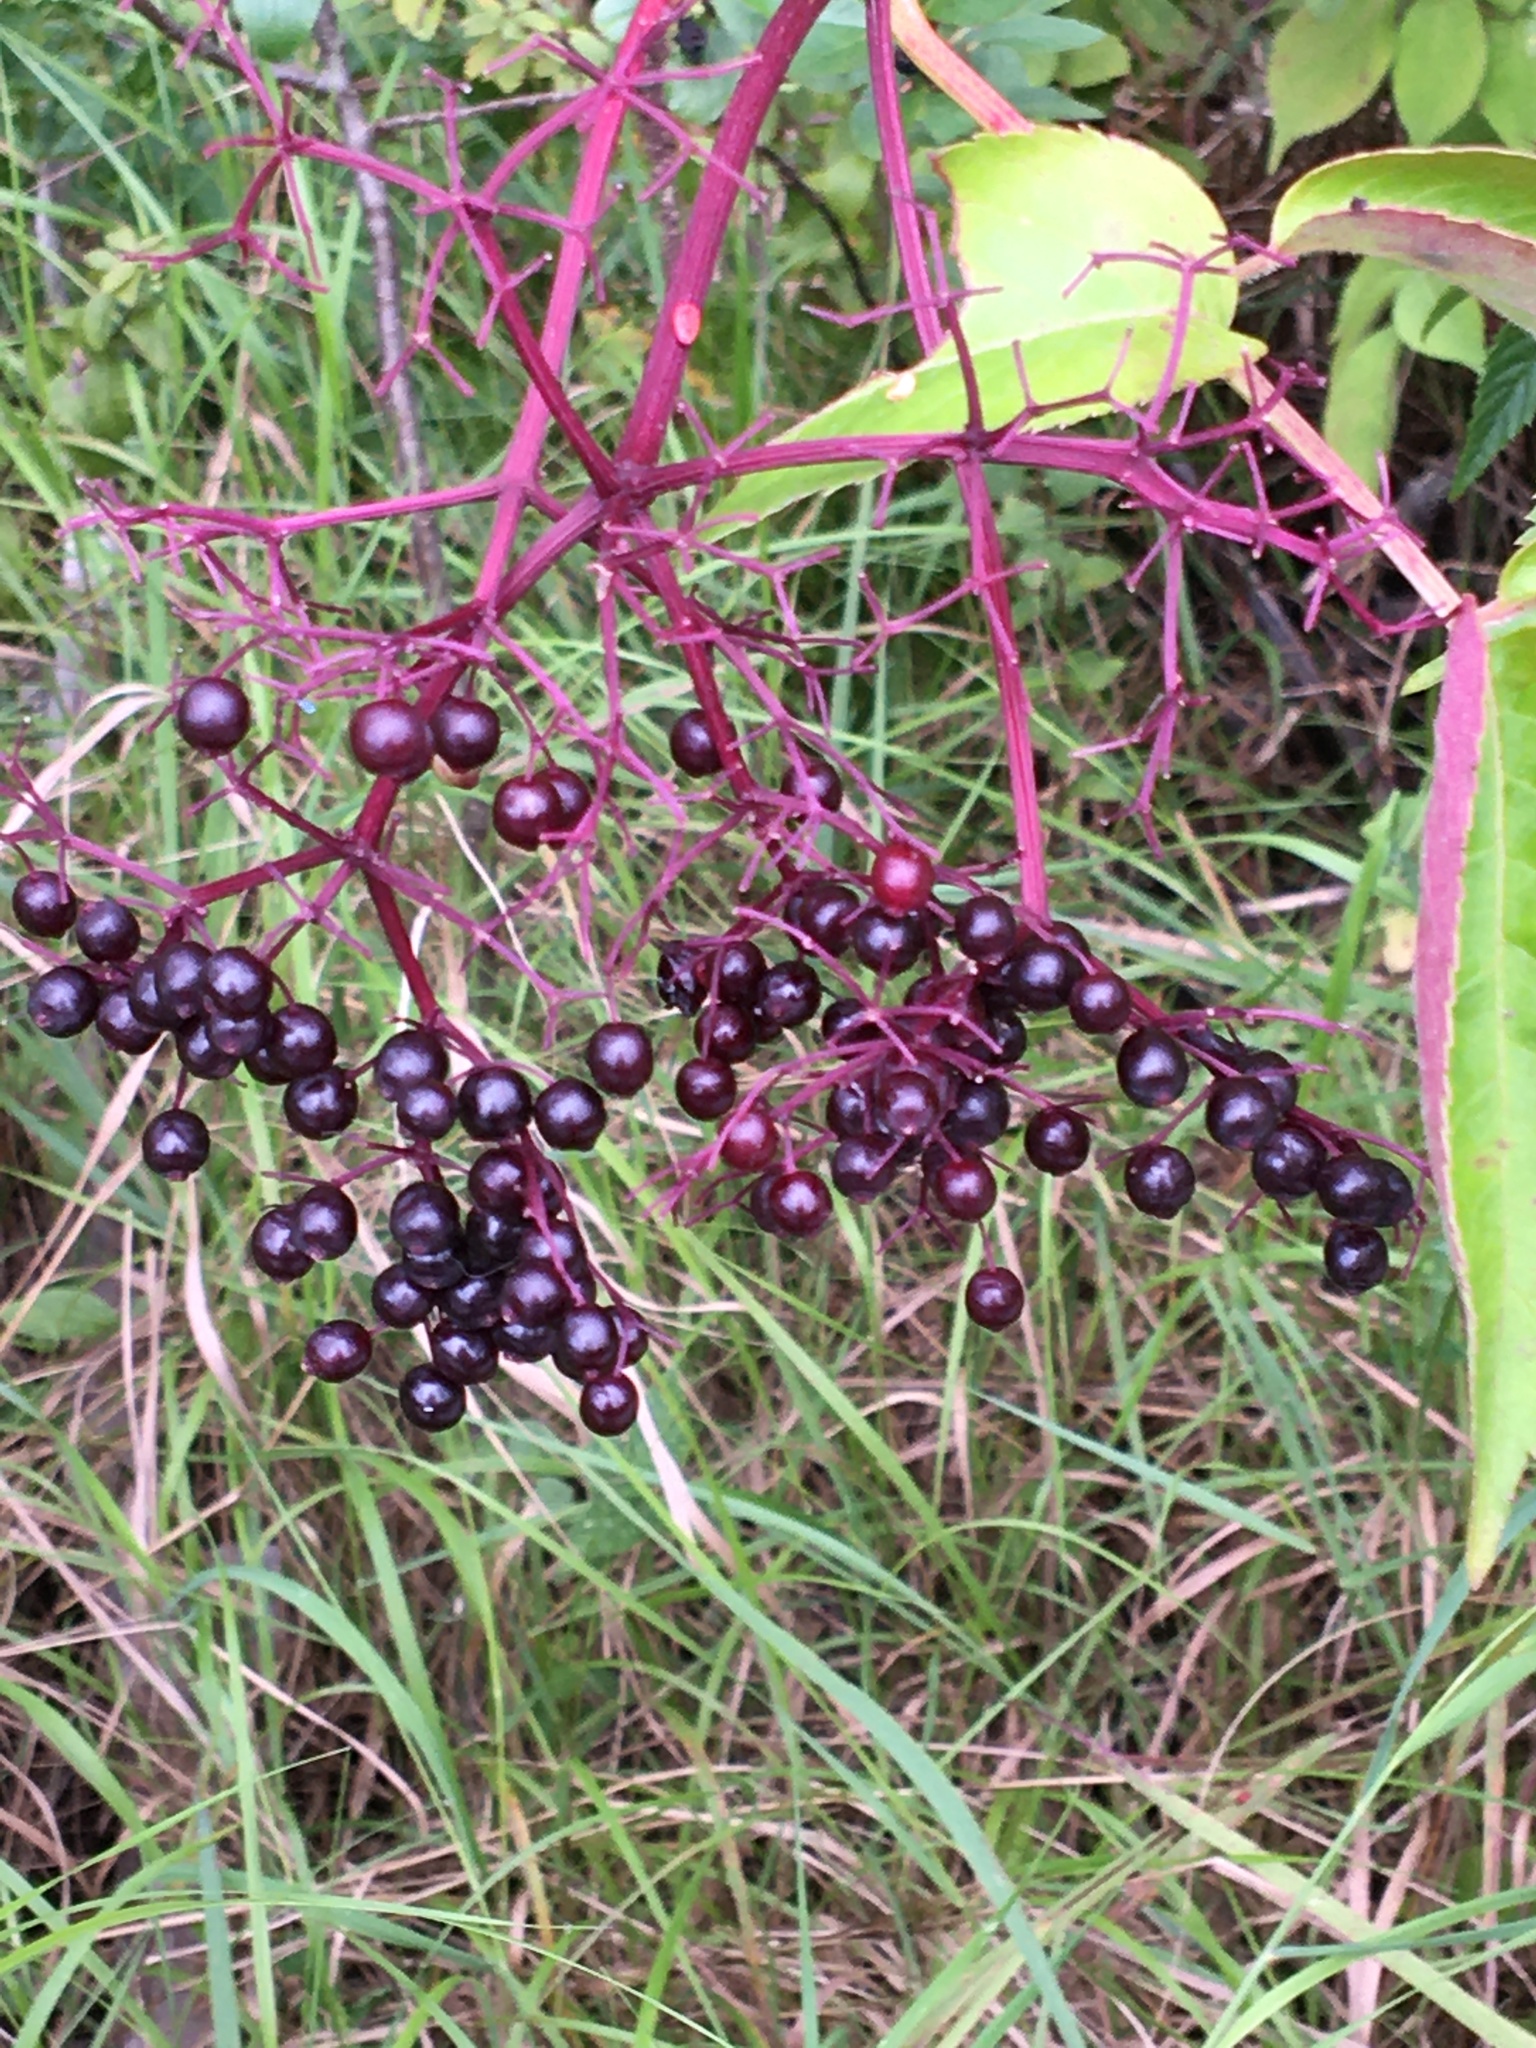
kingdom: Plantae
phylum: Tracheophyta
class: Magnoliopsida
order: Dipsacales
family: Viburnaceae
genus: Sambucus
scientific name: Sambucus canadensis
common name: American elder
